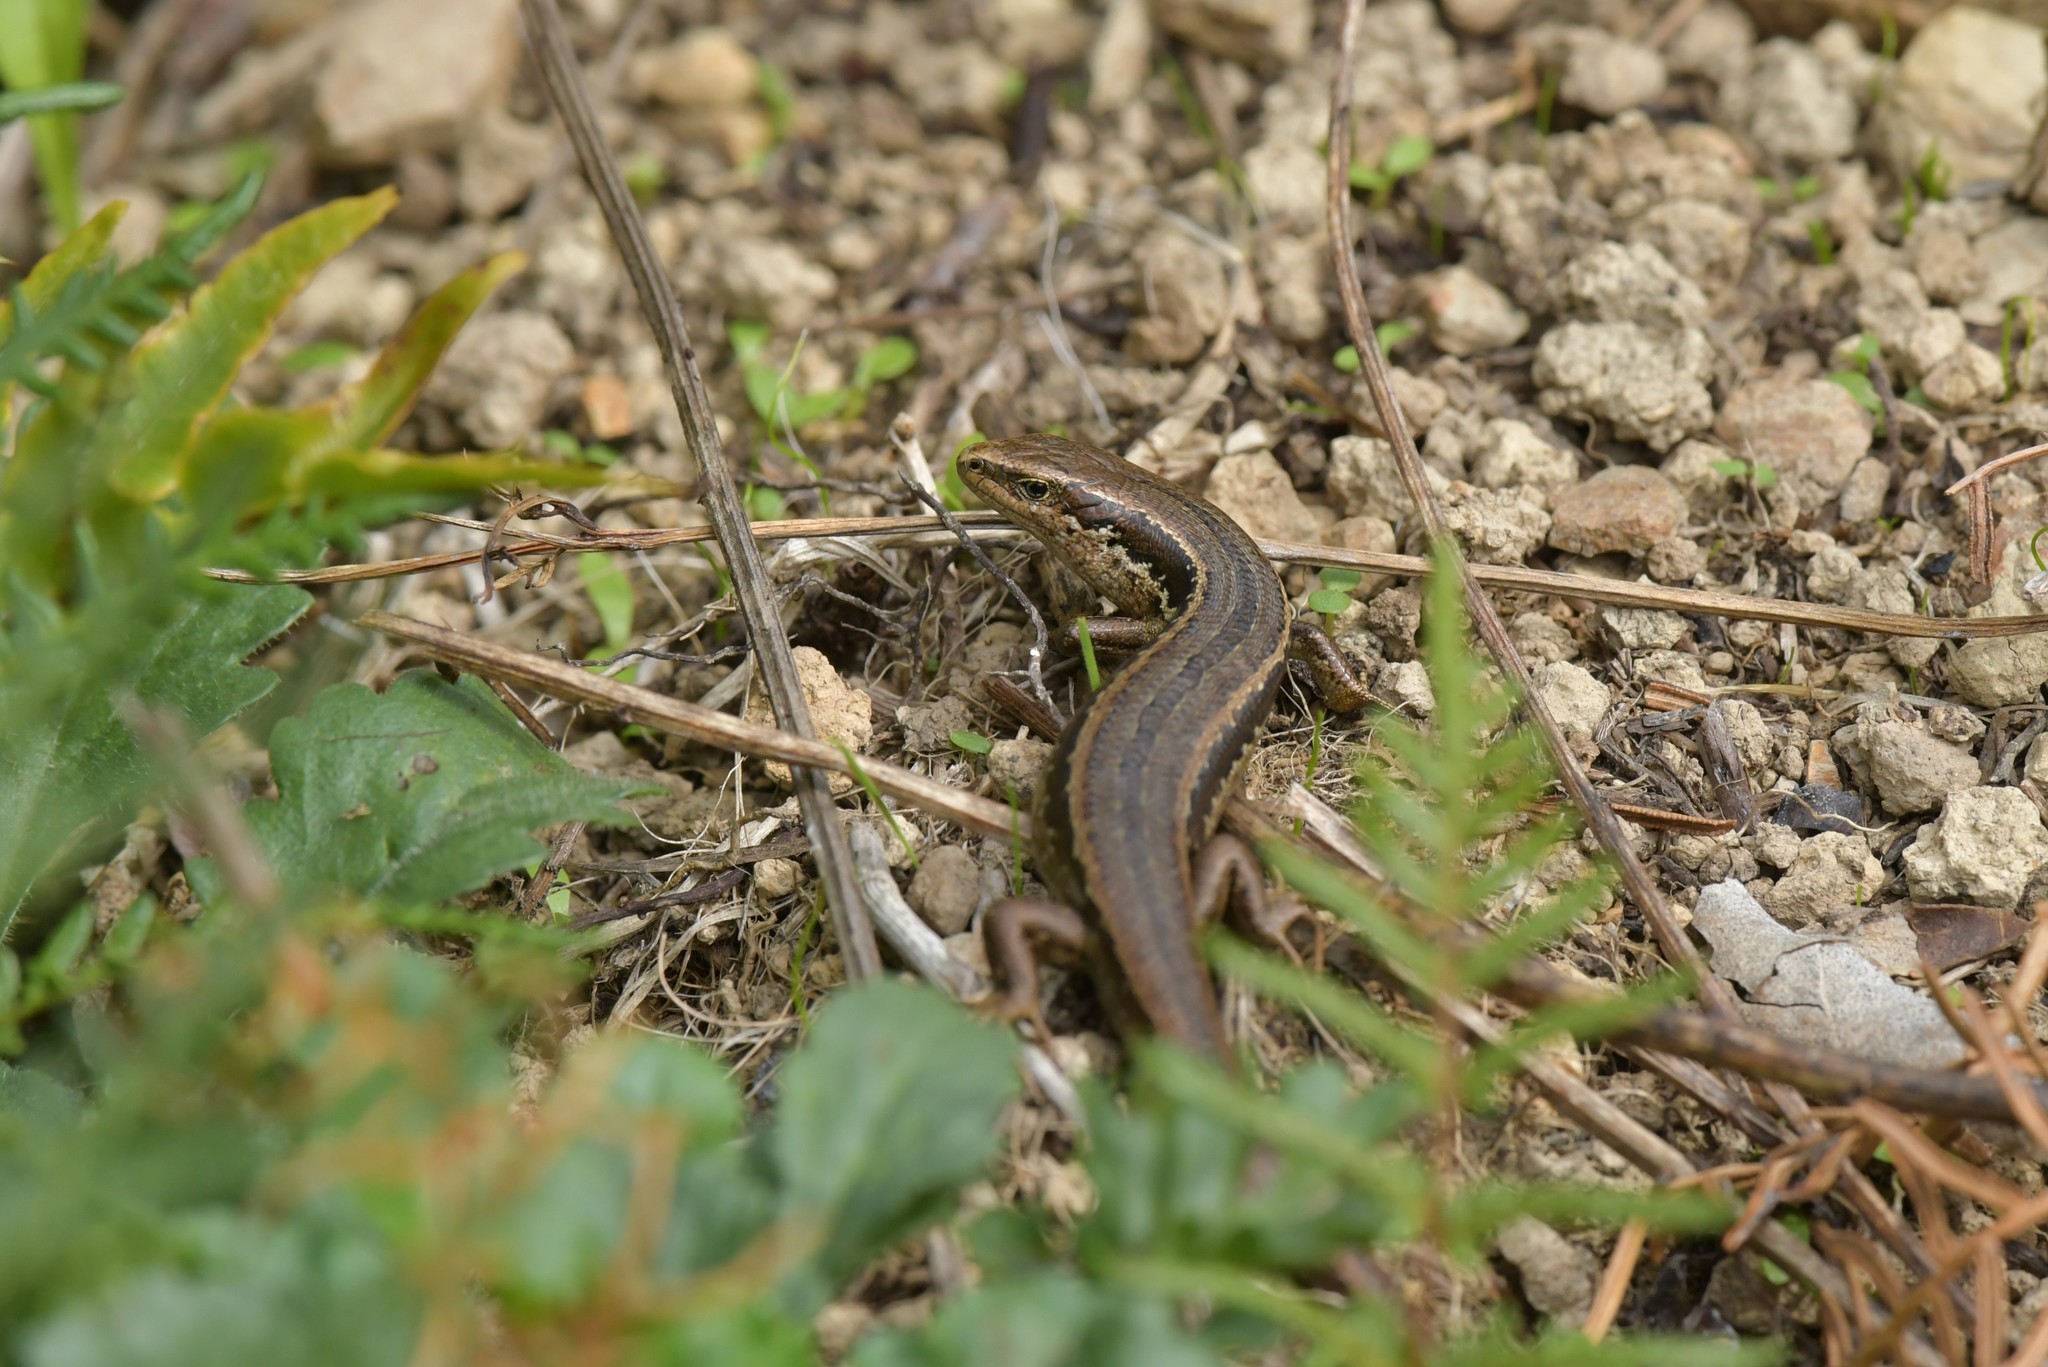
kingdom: Animalia
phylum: Chordata
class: Squamata
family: Scincidae
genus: Oligosoma
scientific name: Oligosoma polychroma
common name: Common new zealand skink
